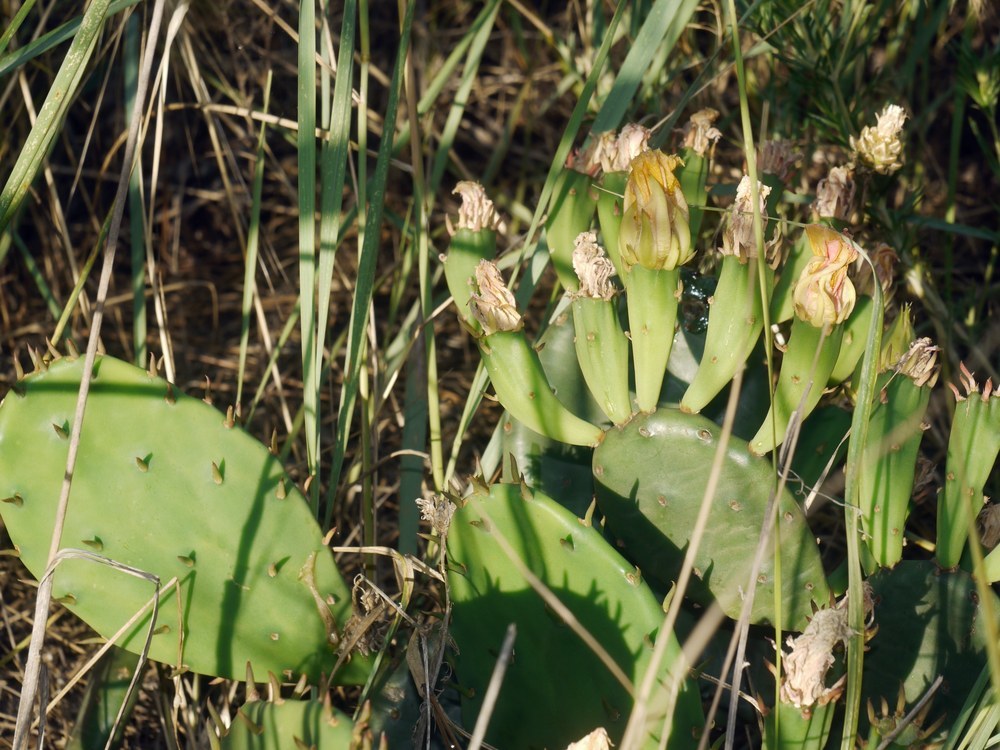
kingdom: Plantae
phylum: Tracheophyta
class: Magnoliopsida
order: Caryophyllales
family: Cactaceae
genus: Opuntia
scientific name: Opuntia humifusa
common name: Eastern prickly-pear
